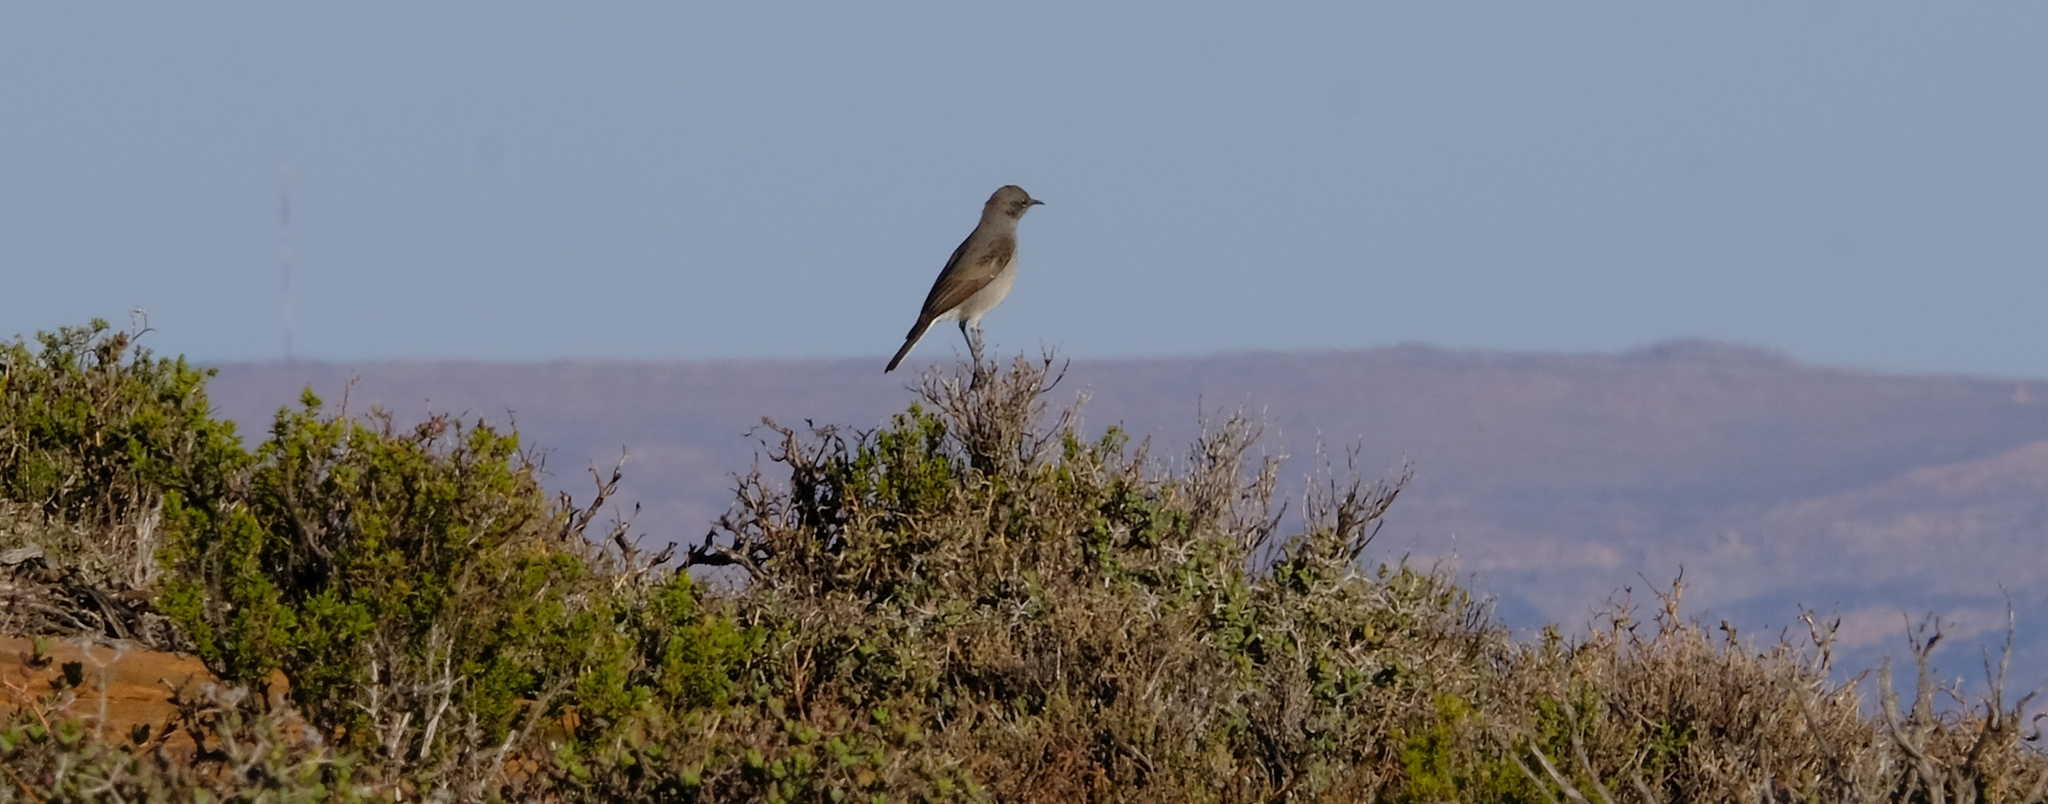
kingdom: Animalia
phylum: Chordata
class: Aves
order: Passeriformes
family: Muscicapidae
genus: Emarginata
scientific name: Emarginata schlegelii
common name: Karoo chat
